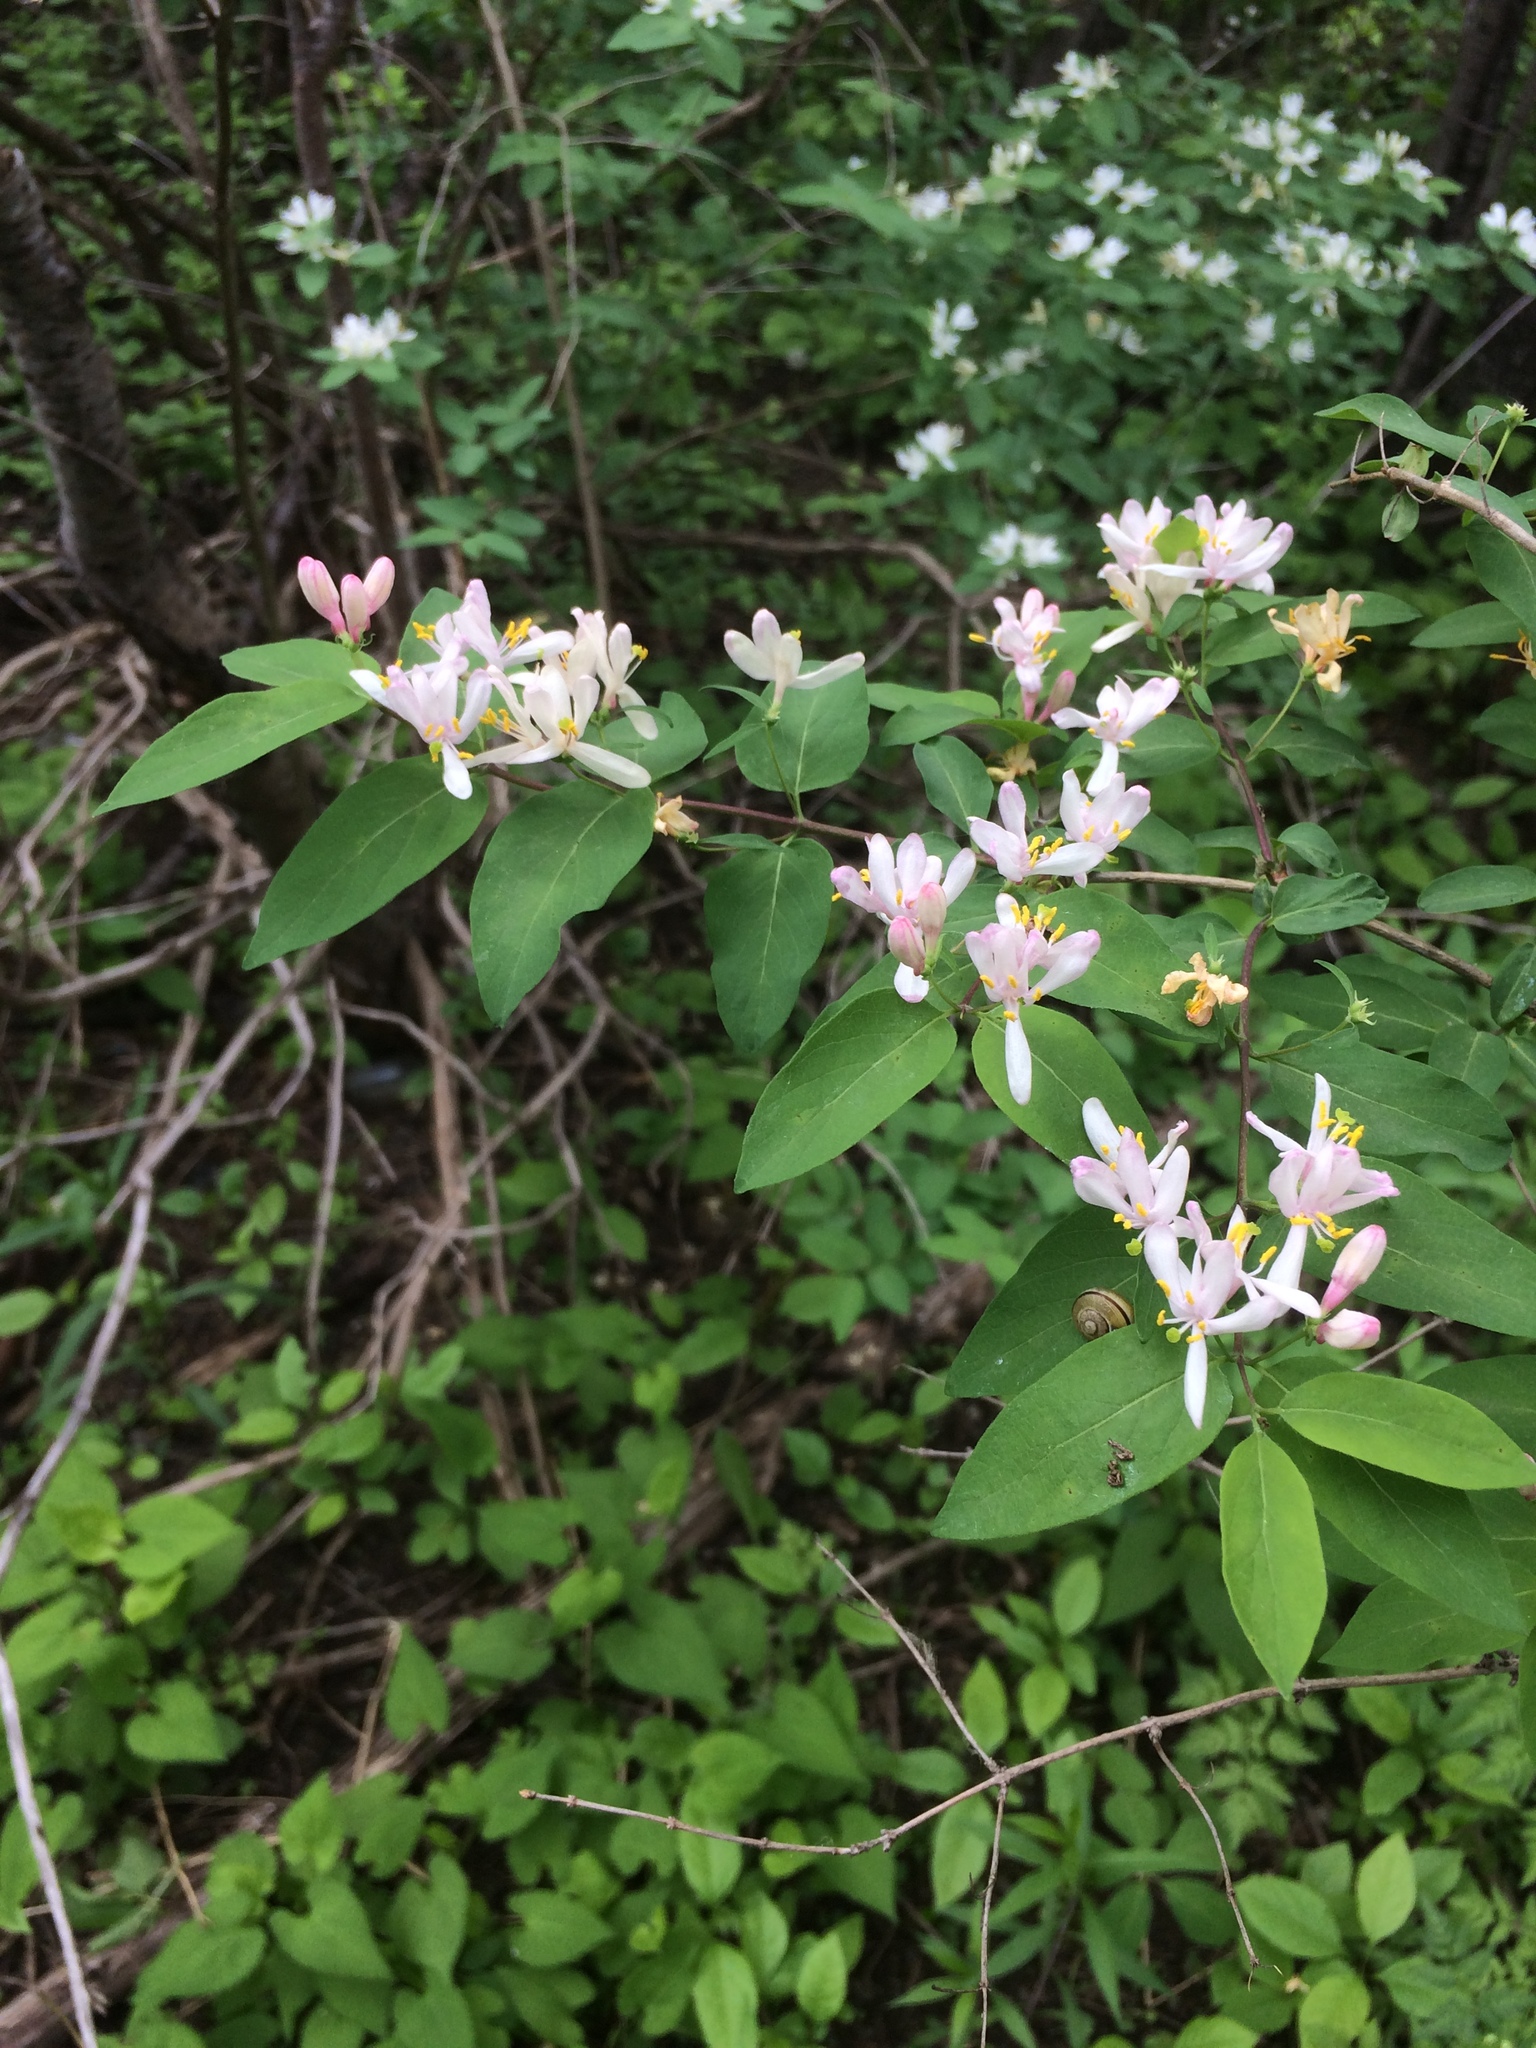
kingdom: Plantae
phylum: Tracheophyta
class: Magnoliopsida
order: Dipsacales
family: Caprifoliaceae
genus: Lonicera
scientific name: Lonicera bella
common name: Bell's honeysuckle
